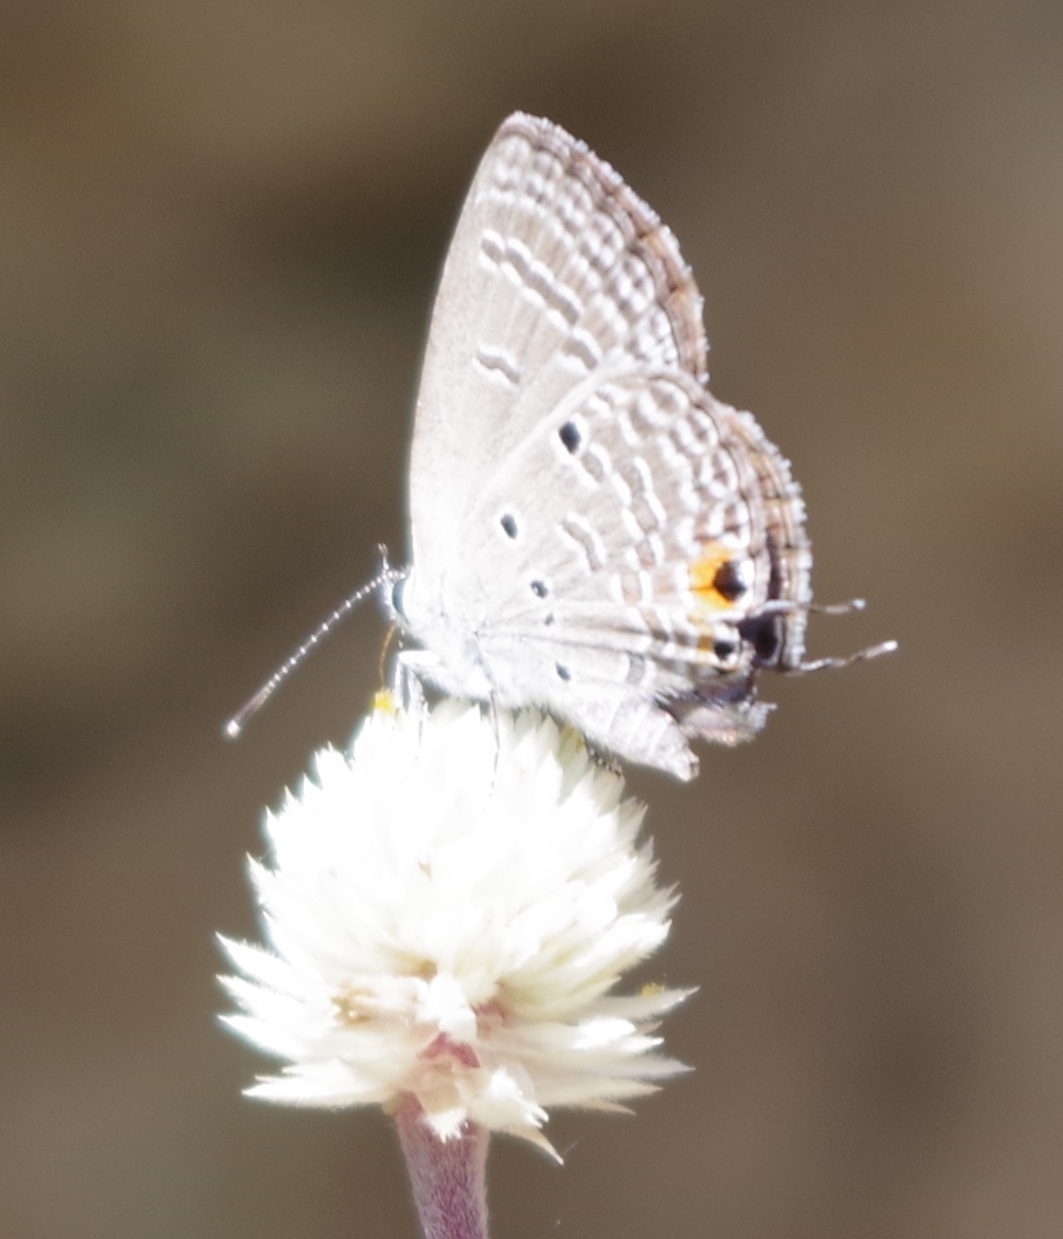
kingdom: Animalia
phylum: Arthropoda
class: Insecta
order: Lepidoptera
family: Lycaenidae
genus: Luthrodes
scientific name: Luthrodes pandava
